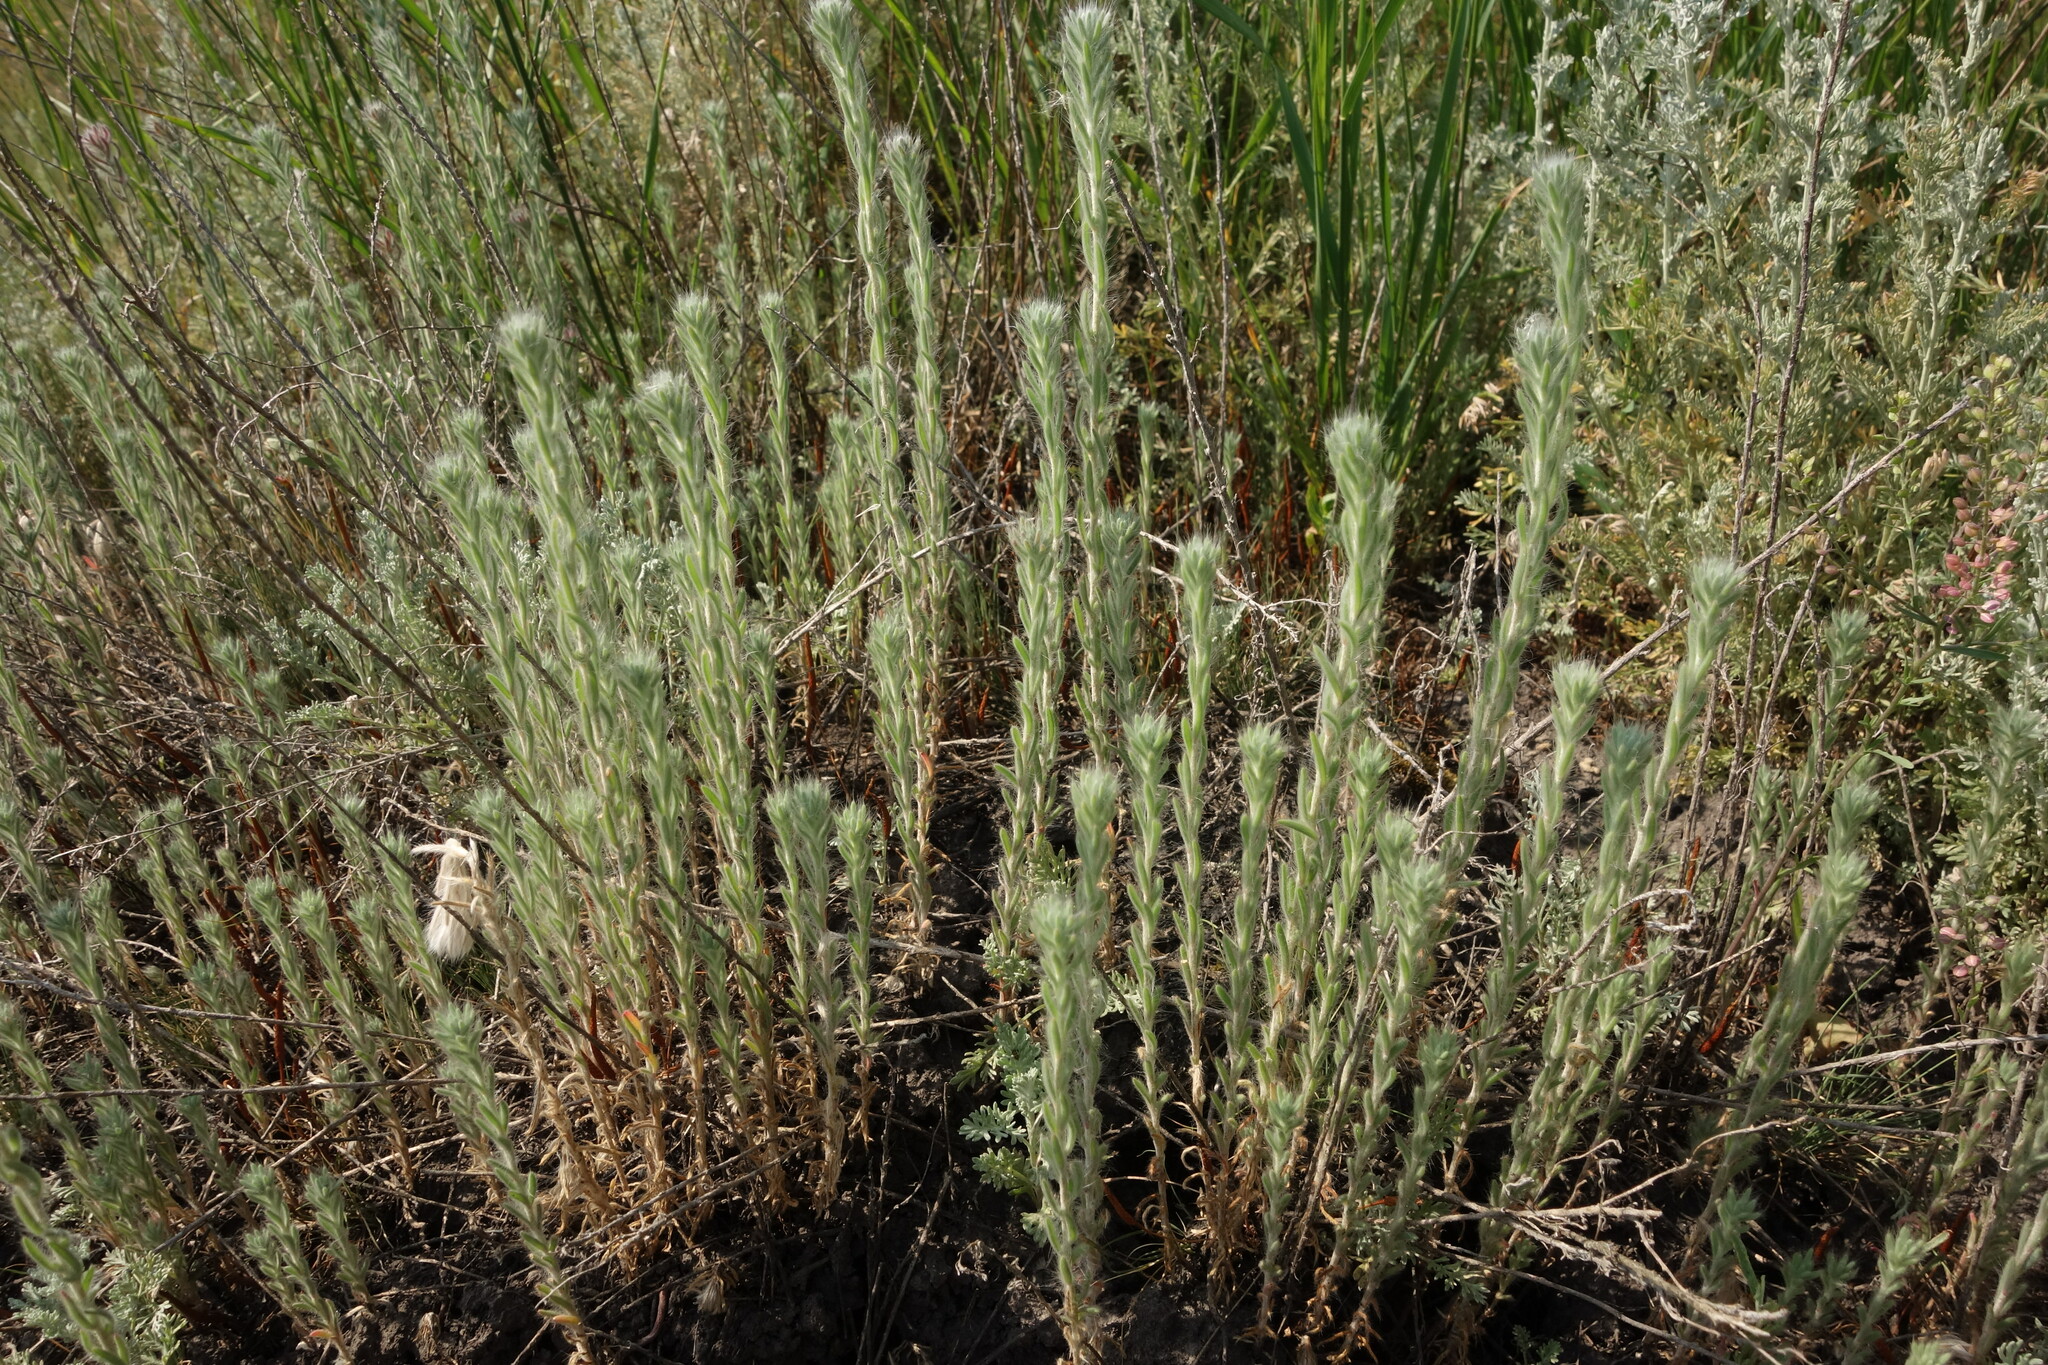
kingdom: Plantae
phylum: Tracheophyta
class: Magnoliopsida
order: Caryophyllales
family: Amaranthaceae
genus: Sedobassia
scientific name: Sedobassia sedoides
